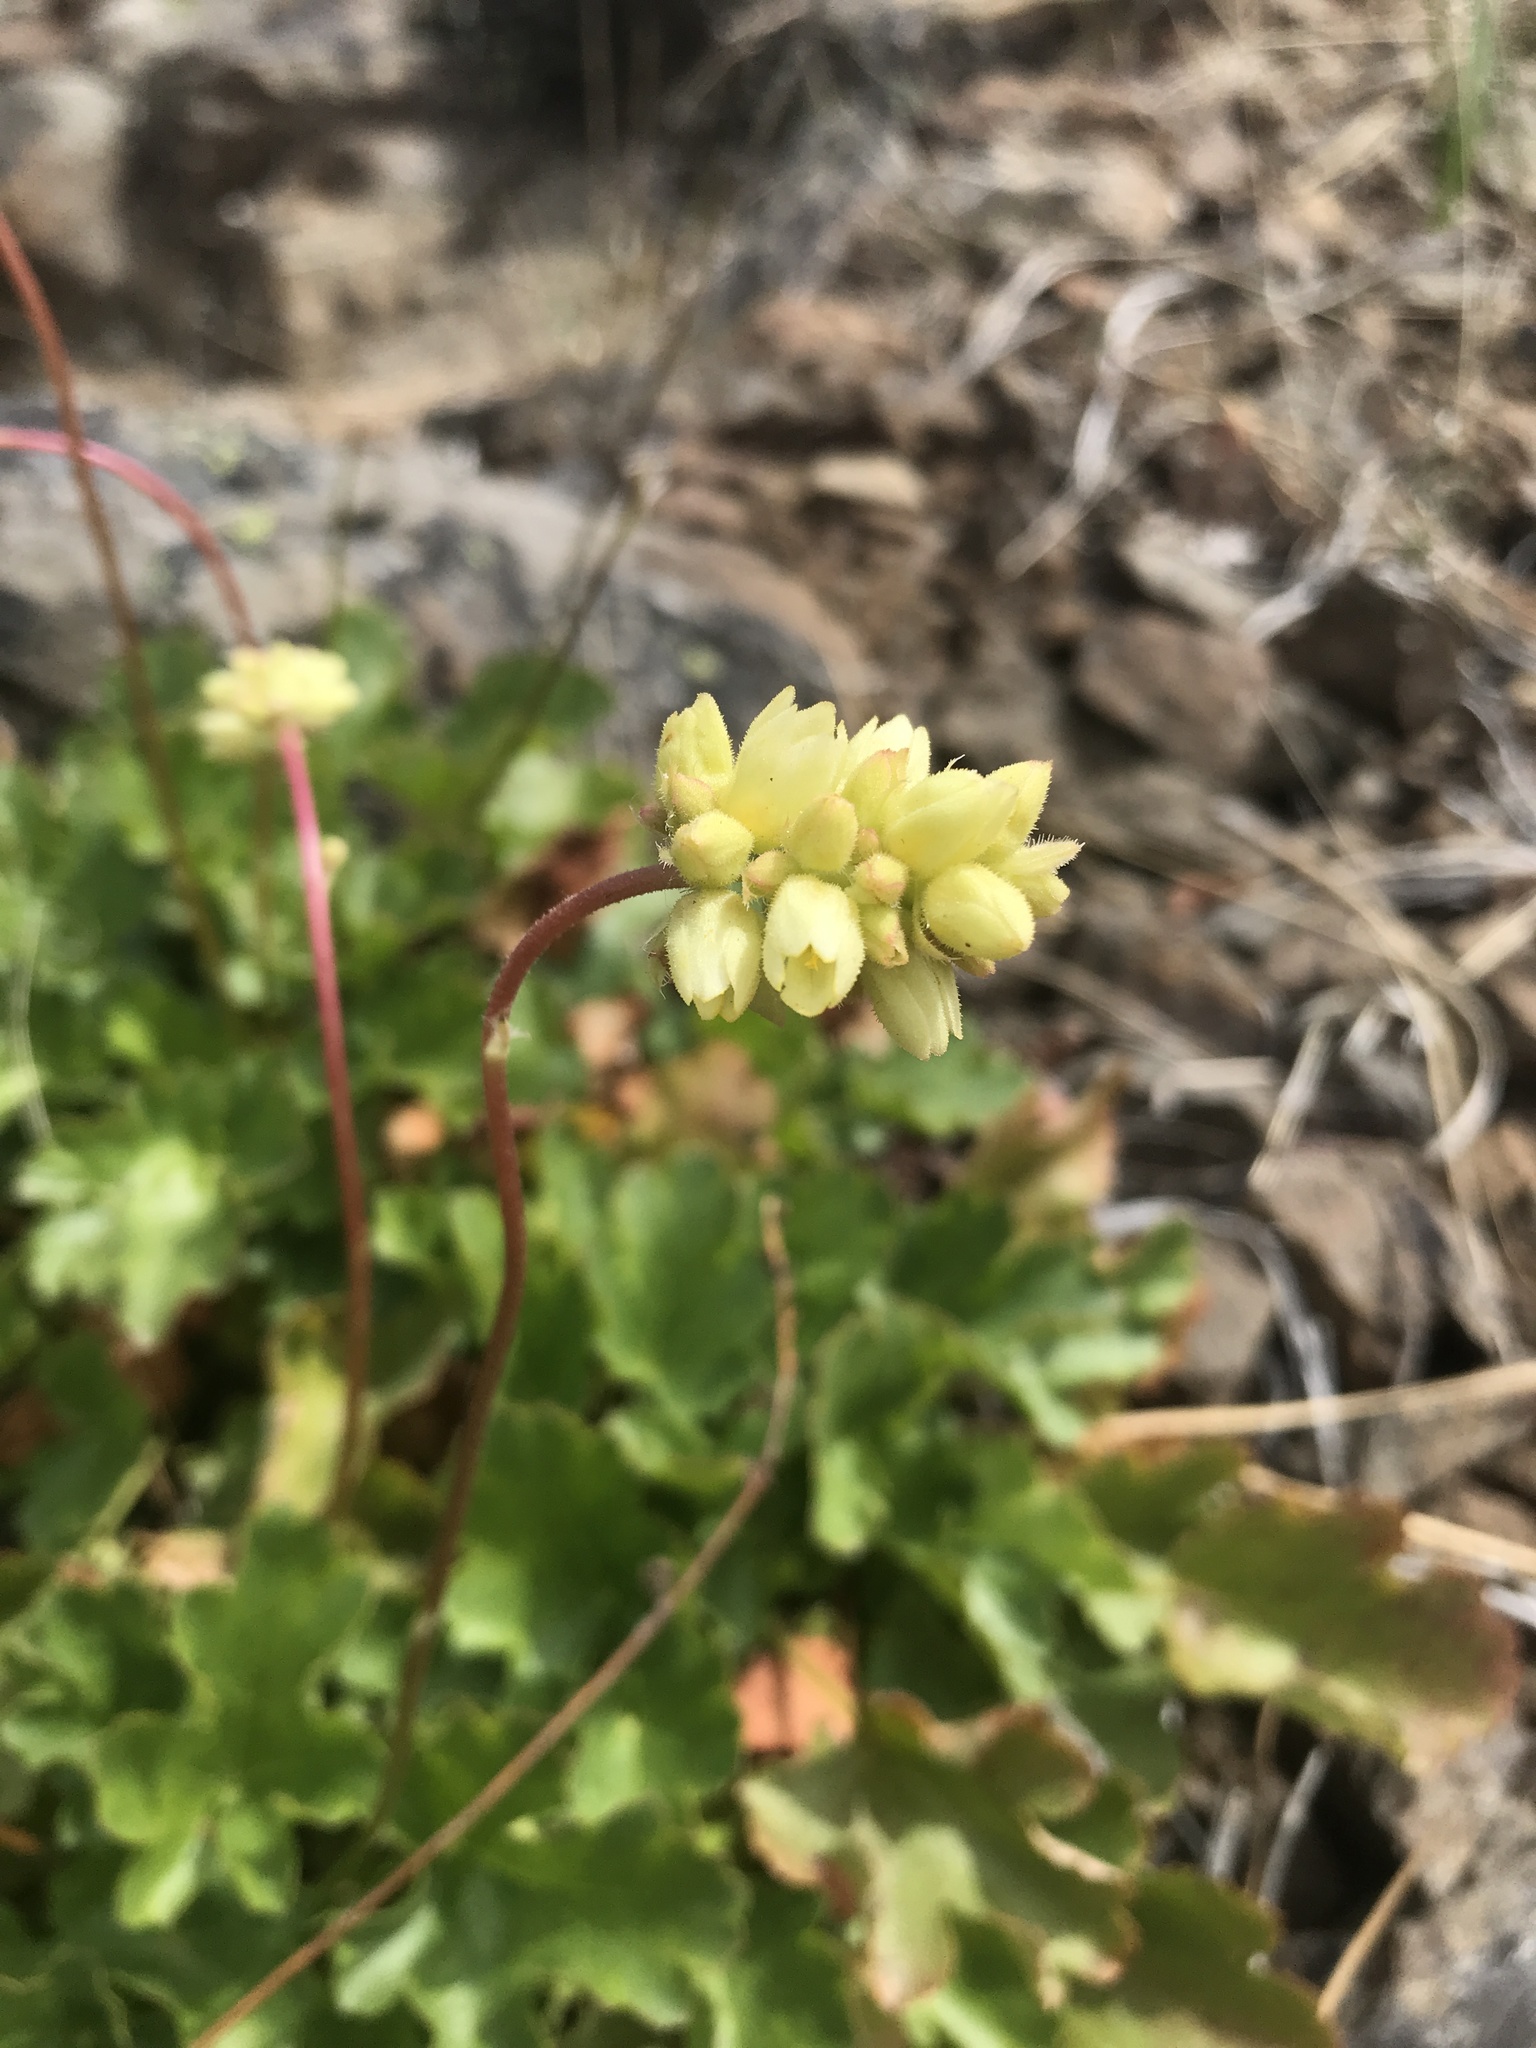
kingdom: Plantae
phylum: Tracheophyta
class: Magnoliopsida
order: Saxifragales
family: Saxifragaceae
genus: Heuchera
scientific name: Heuchera cylindrica
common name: Mat alumroot
